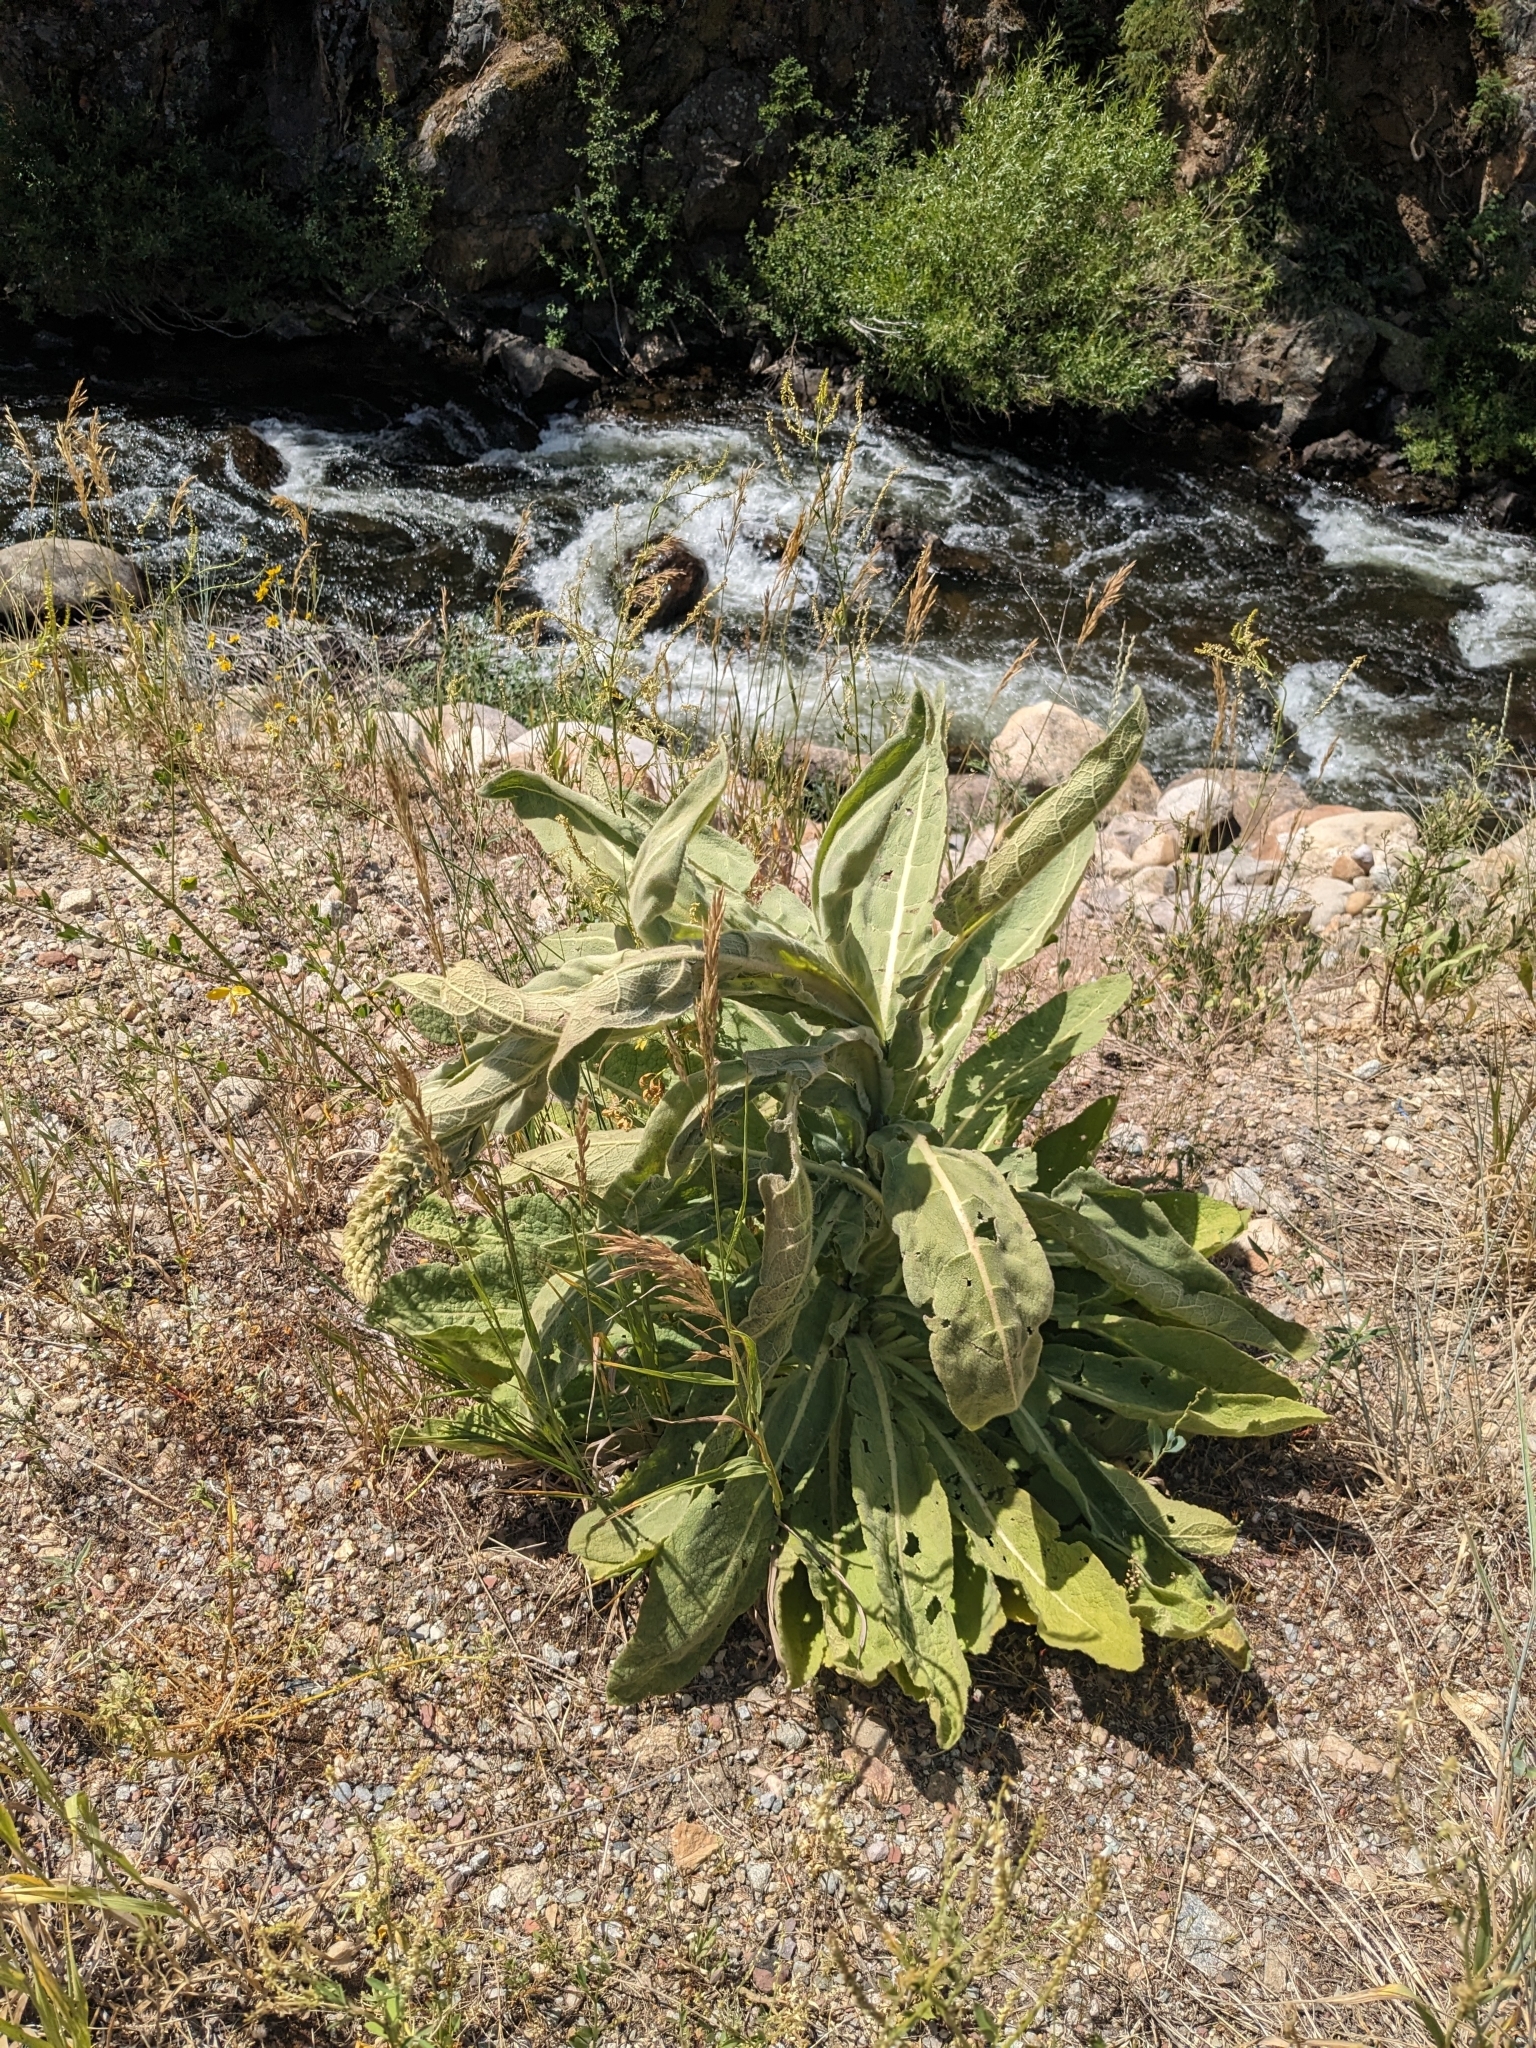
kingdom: Plantae
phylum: Tracheophyta
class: Magnoliopsida
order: Lamiales
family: Scrophulariaceae
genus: Verbascum
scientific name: Verbascum thapsus
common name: Common mullein
